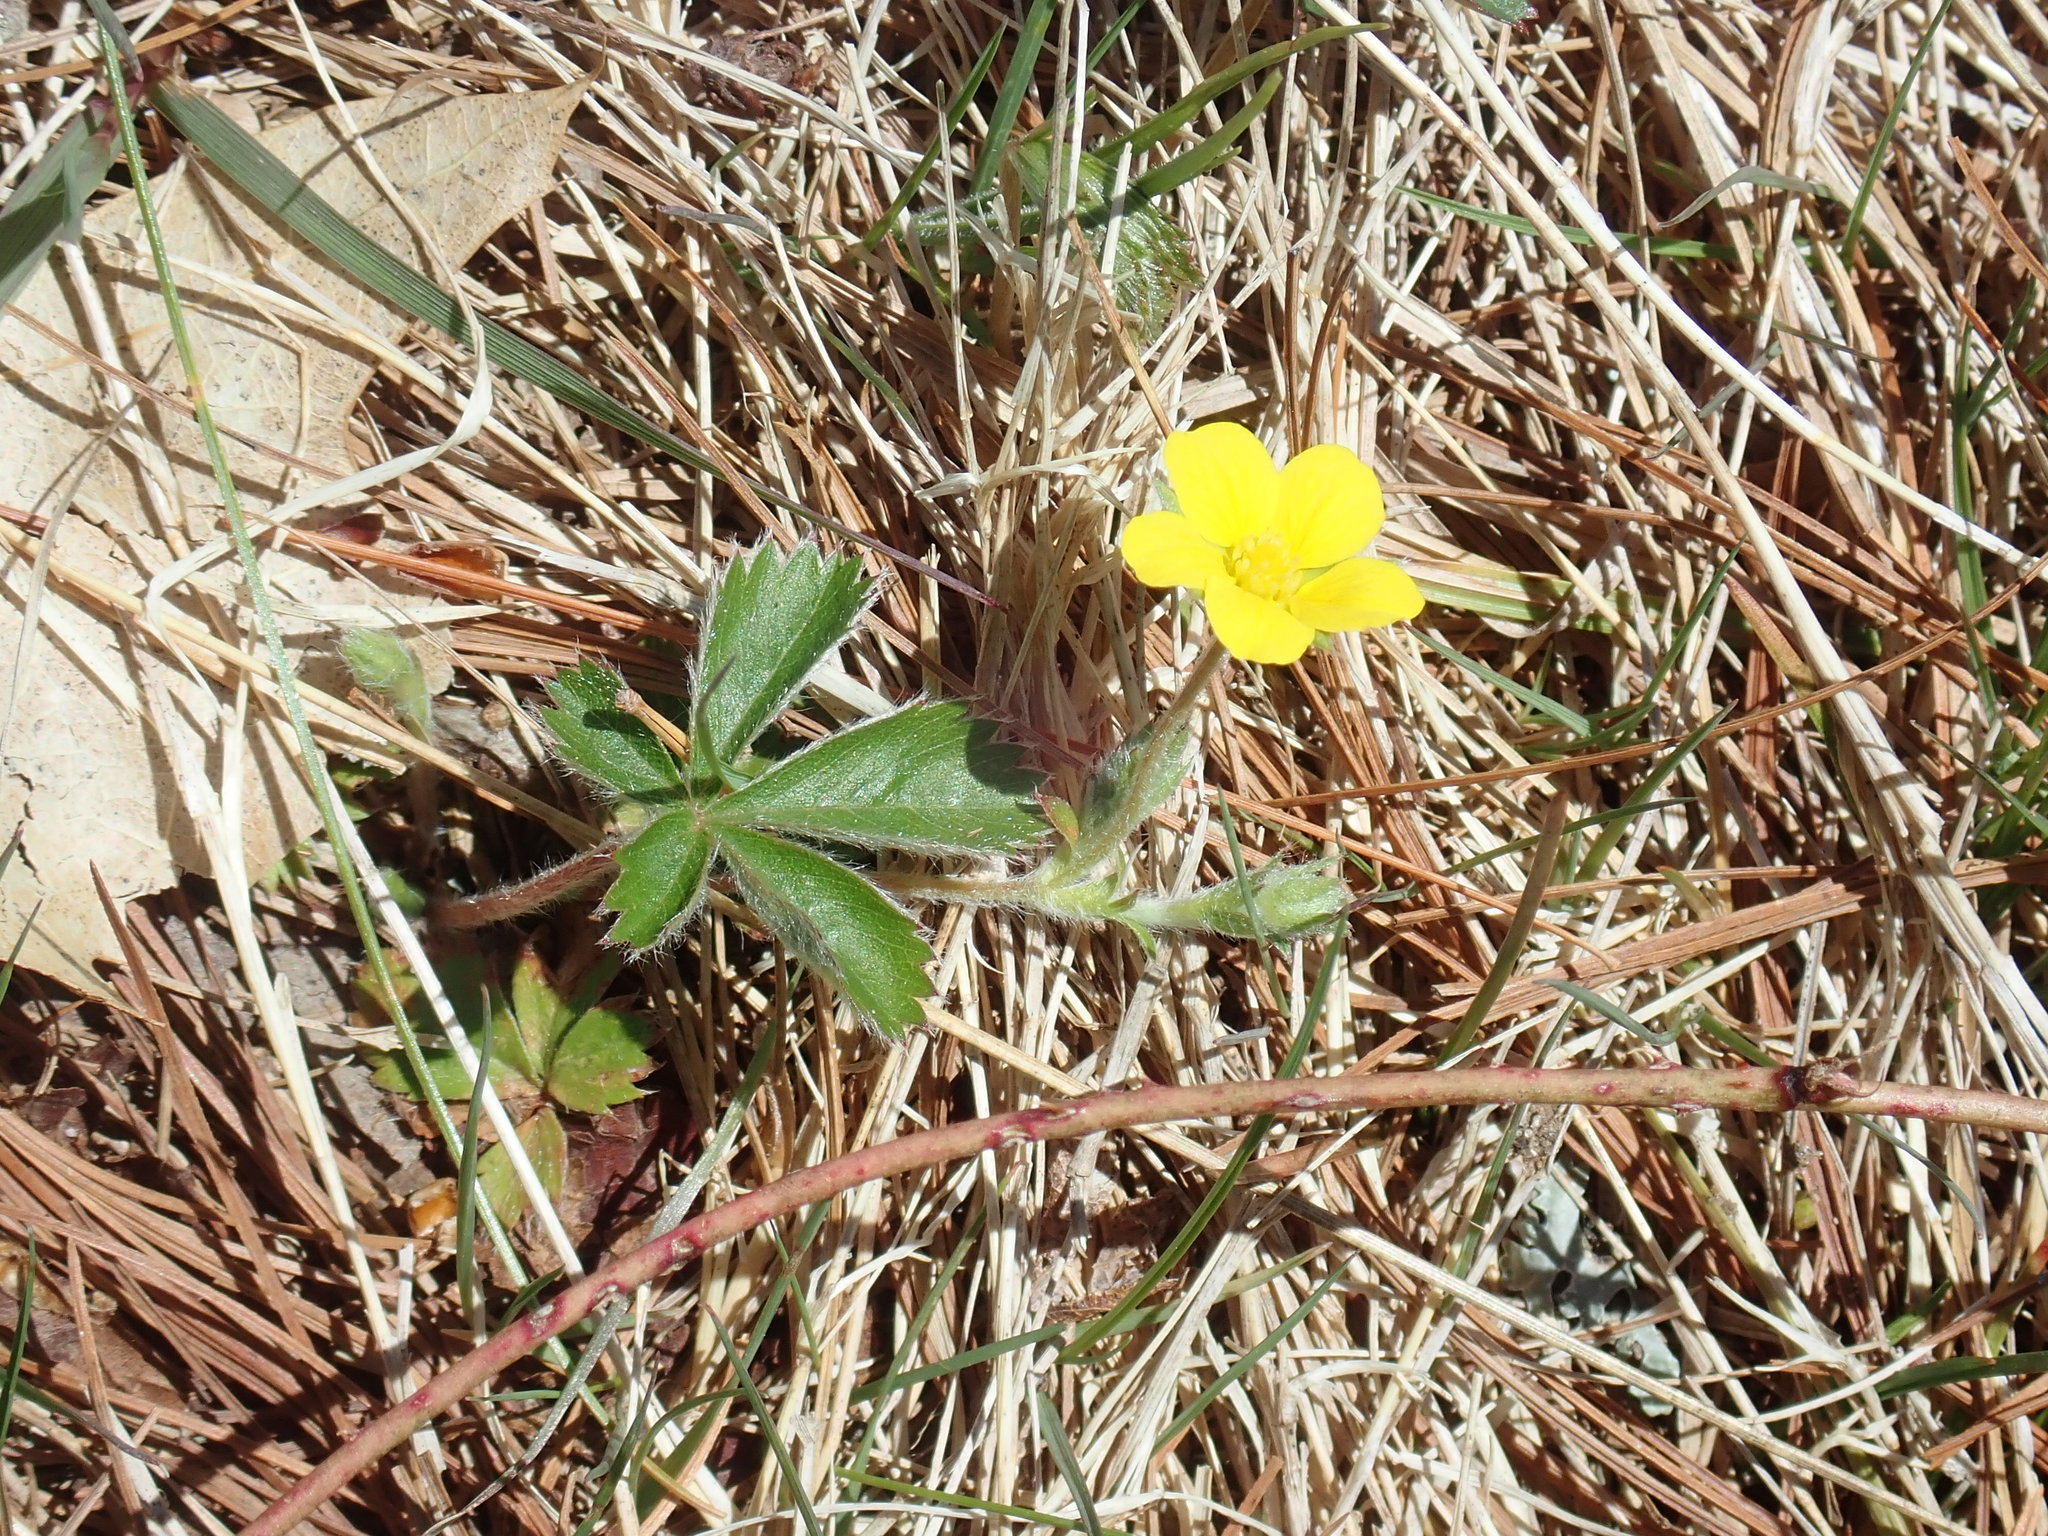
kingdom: Plantae
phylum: Tracheophyta
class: Magnoliopsida
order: Rosales
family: Rosaceae
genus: Potentilla
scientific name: Potentilla canadensis
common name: Canada cinquefoil
